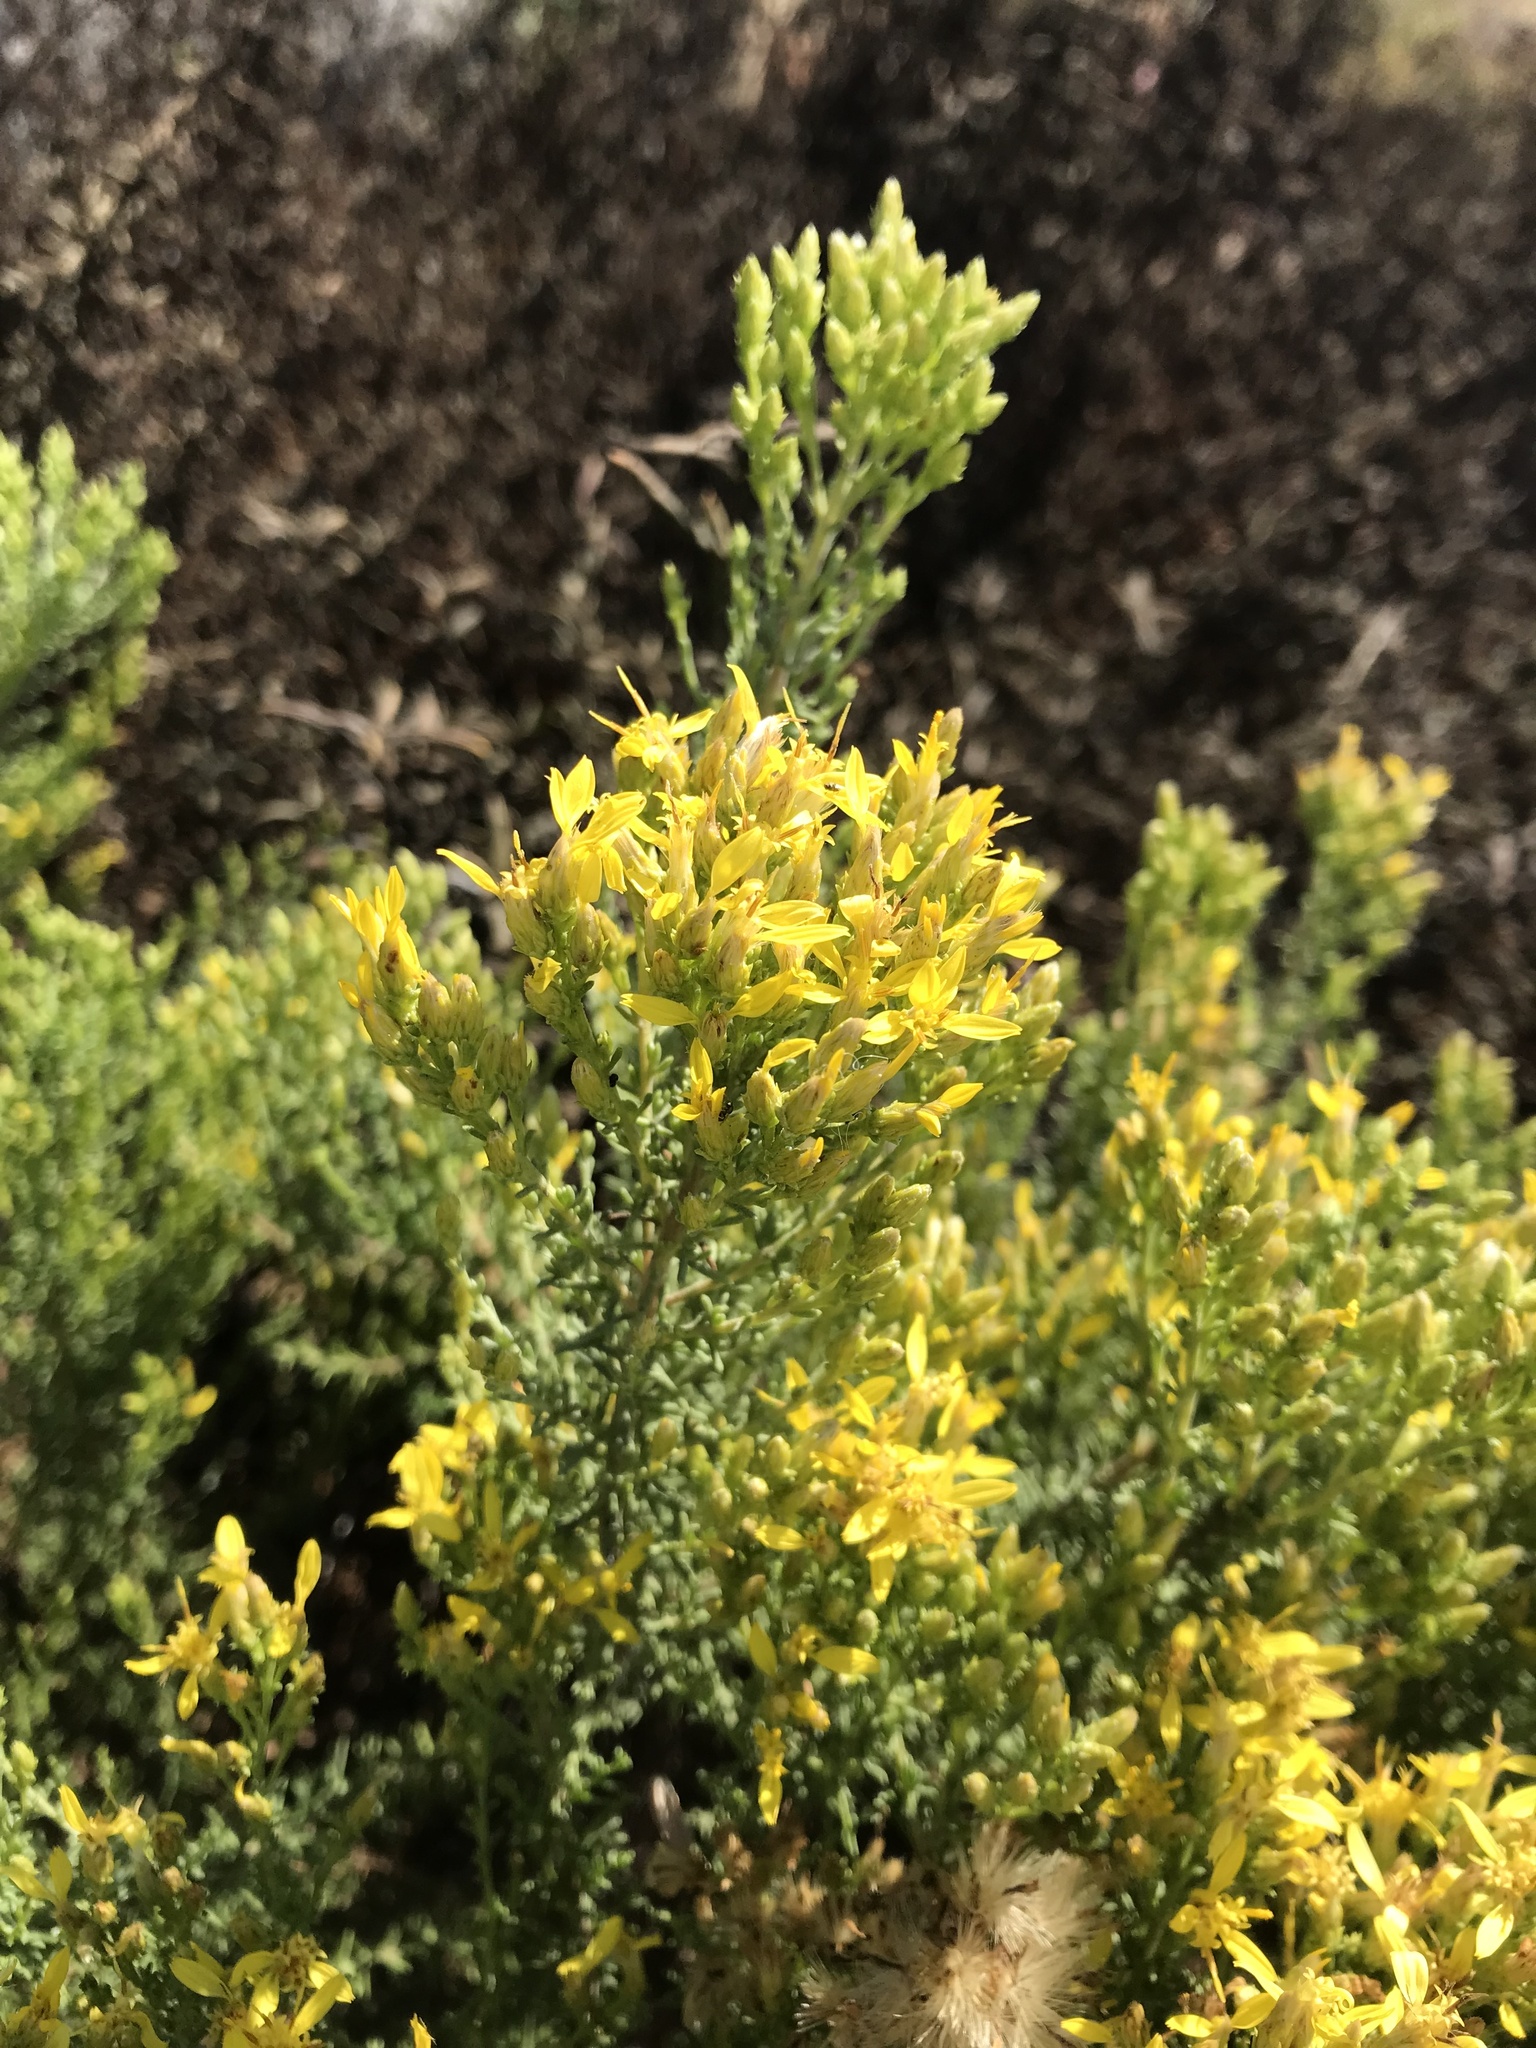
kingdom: Plantae
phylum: Tracheophyta
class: Magnoliopsida
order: Asterales
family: Asteraceae
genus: Ericameria
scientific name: Ericameria ericoides
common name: California goldenbush
